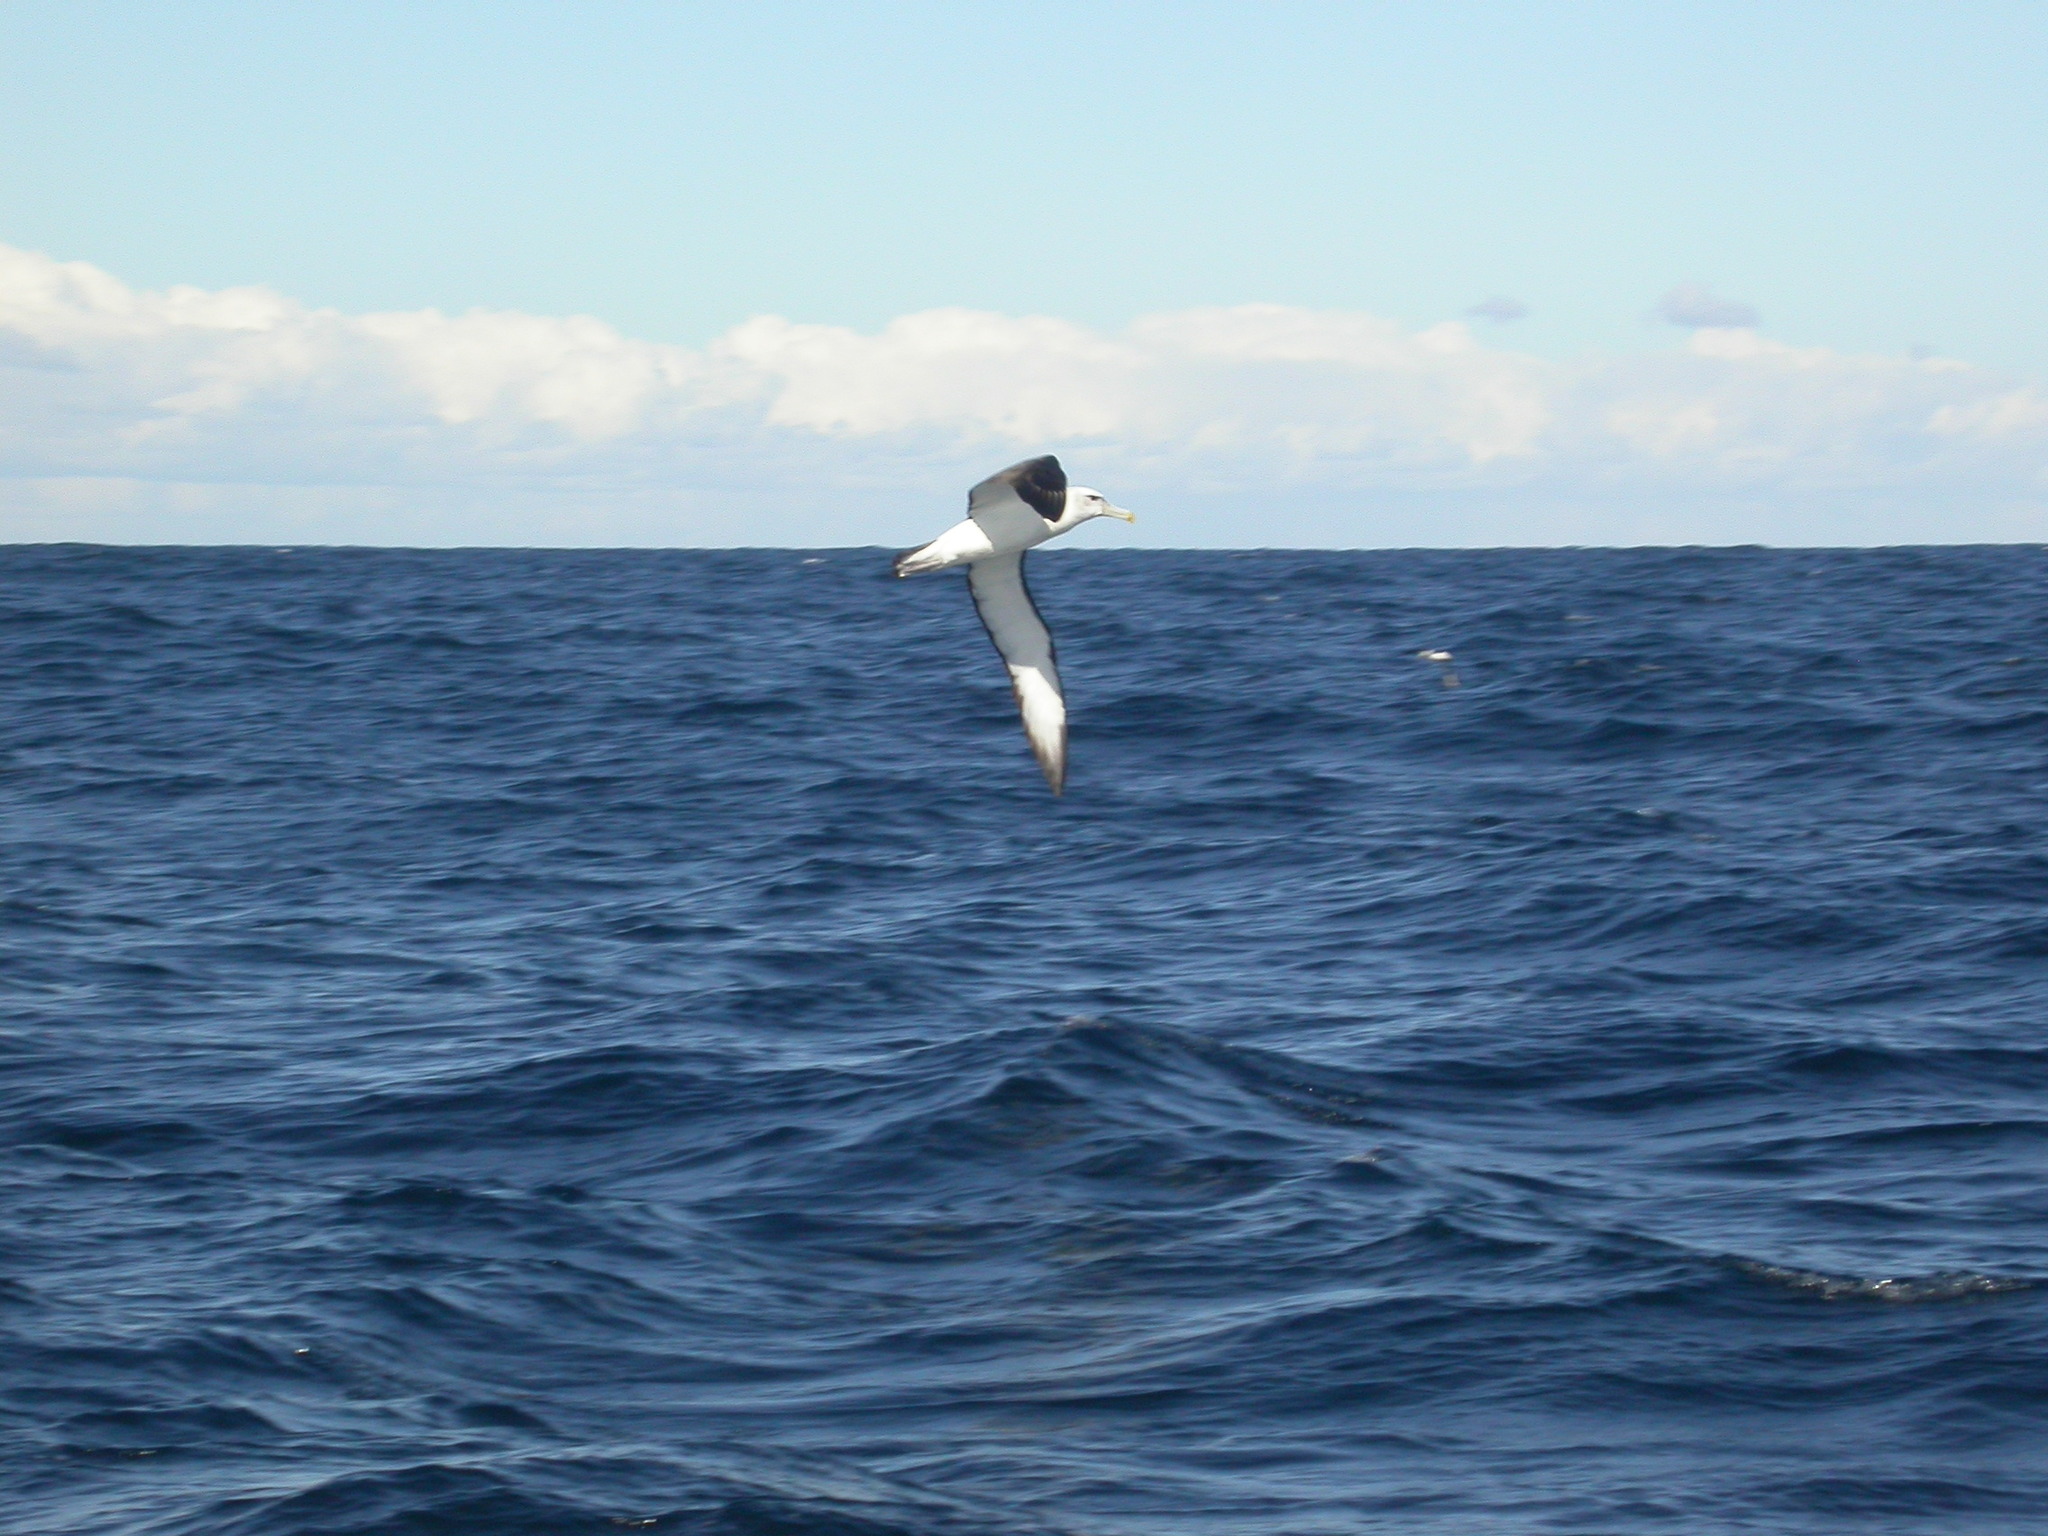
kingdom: Animalia
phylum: Chordata
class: Aves
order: Procellariiformes
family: Diomedeidae
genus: Thalassarche
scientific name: Thalassarche cauta
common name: Shy albatross
